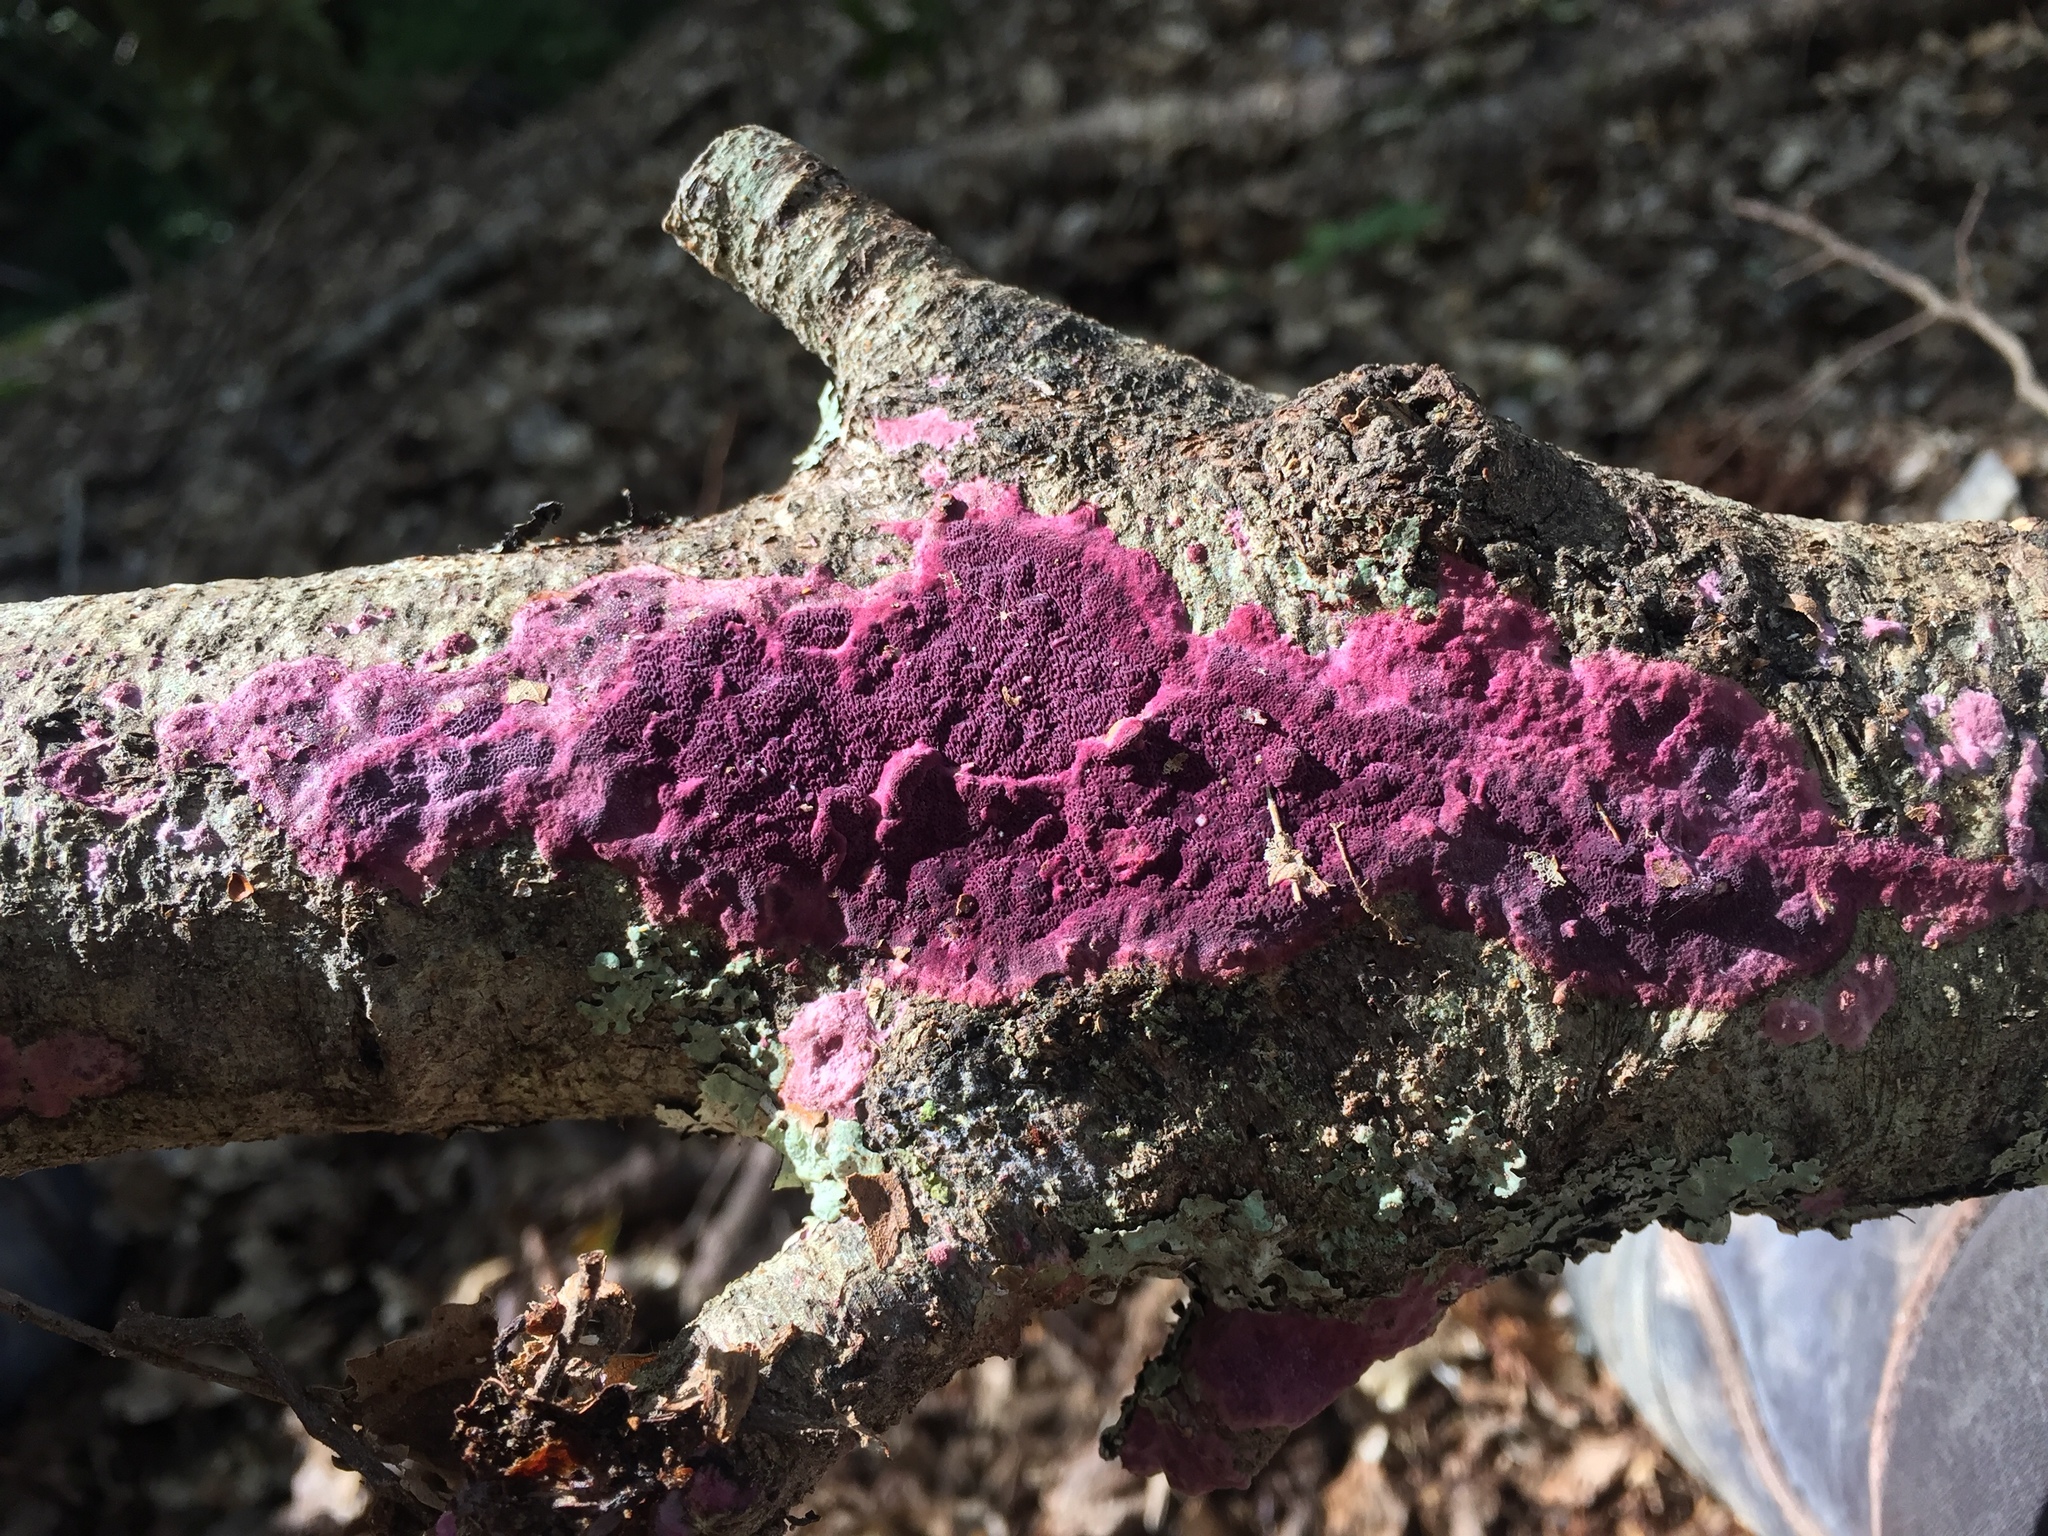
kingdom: Fungi
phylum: Basidiomycota
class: Agaricomycetes
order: Polyporales
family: Irpicaceae
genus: Byssomerulius
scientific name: Byssomerulius psittacinus
